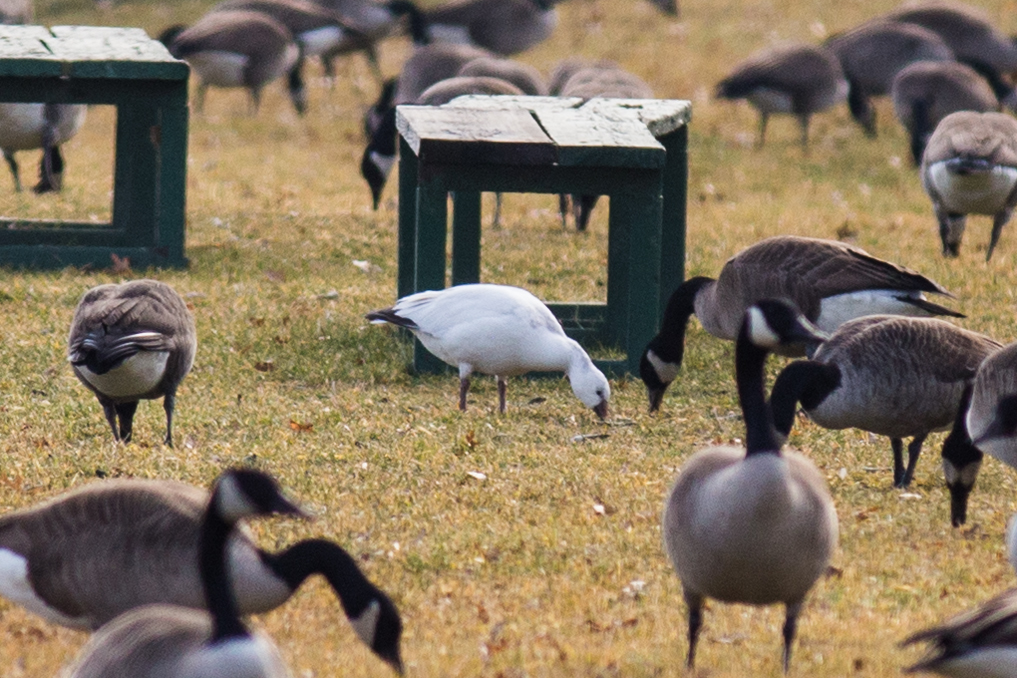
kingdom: Animalia
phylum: Chordata
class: Aves
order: Anseriformes
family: Anatidae
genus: Anser
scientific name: Anser rossii
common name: Ross's goose
